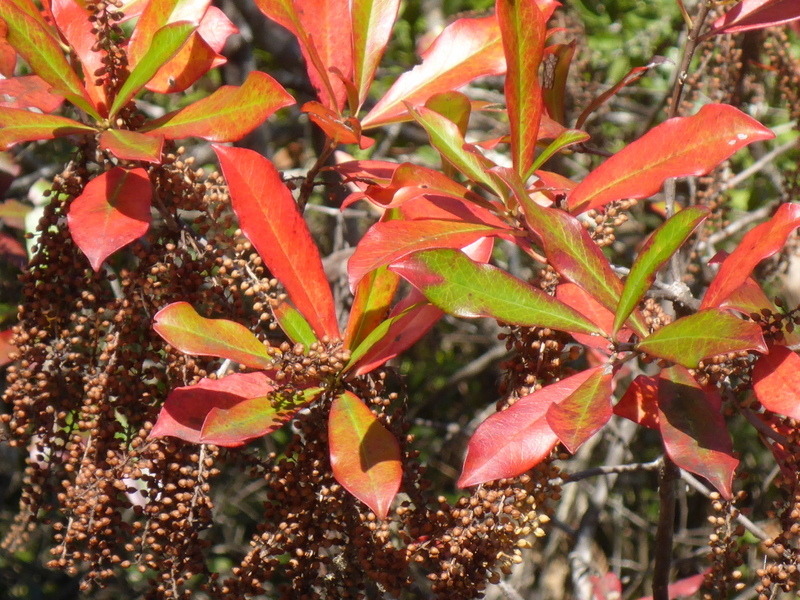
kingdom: Plantae
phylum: Tracheophyta
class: Magnoliopsida
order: Ericales
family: Cyrillaceae
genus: Cyrilla
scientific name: Cyrilla racemiflora
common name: Black titi
